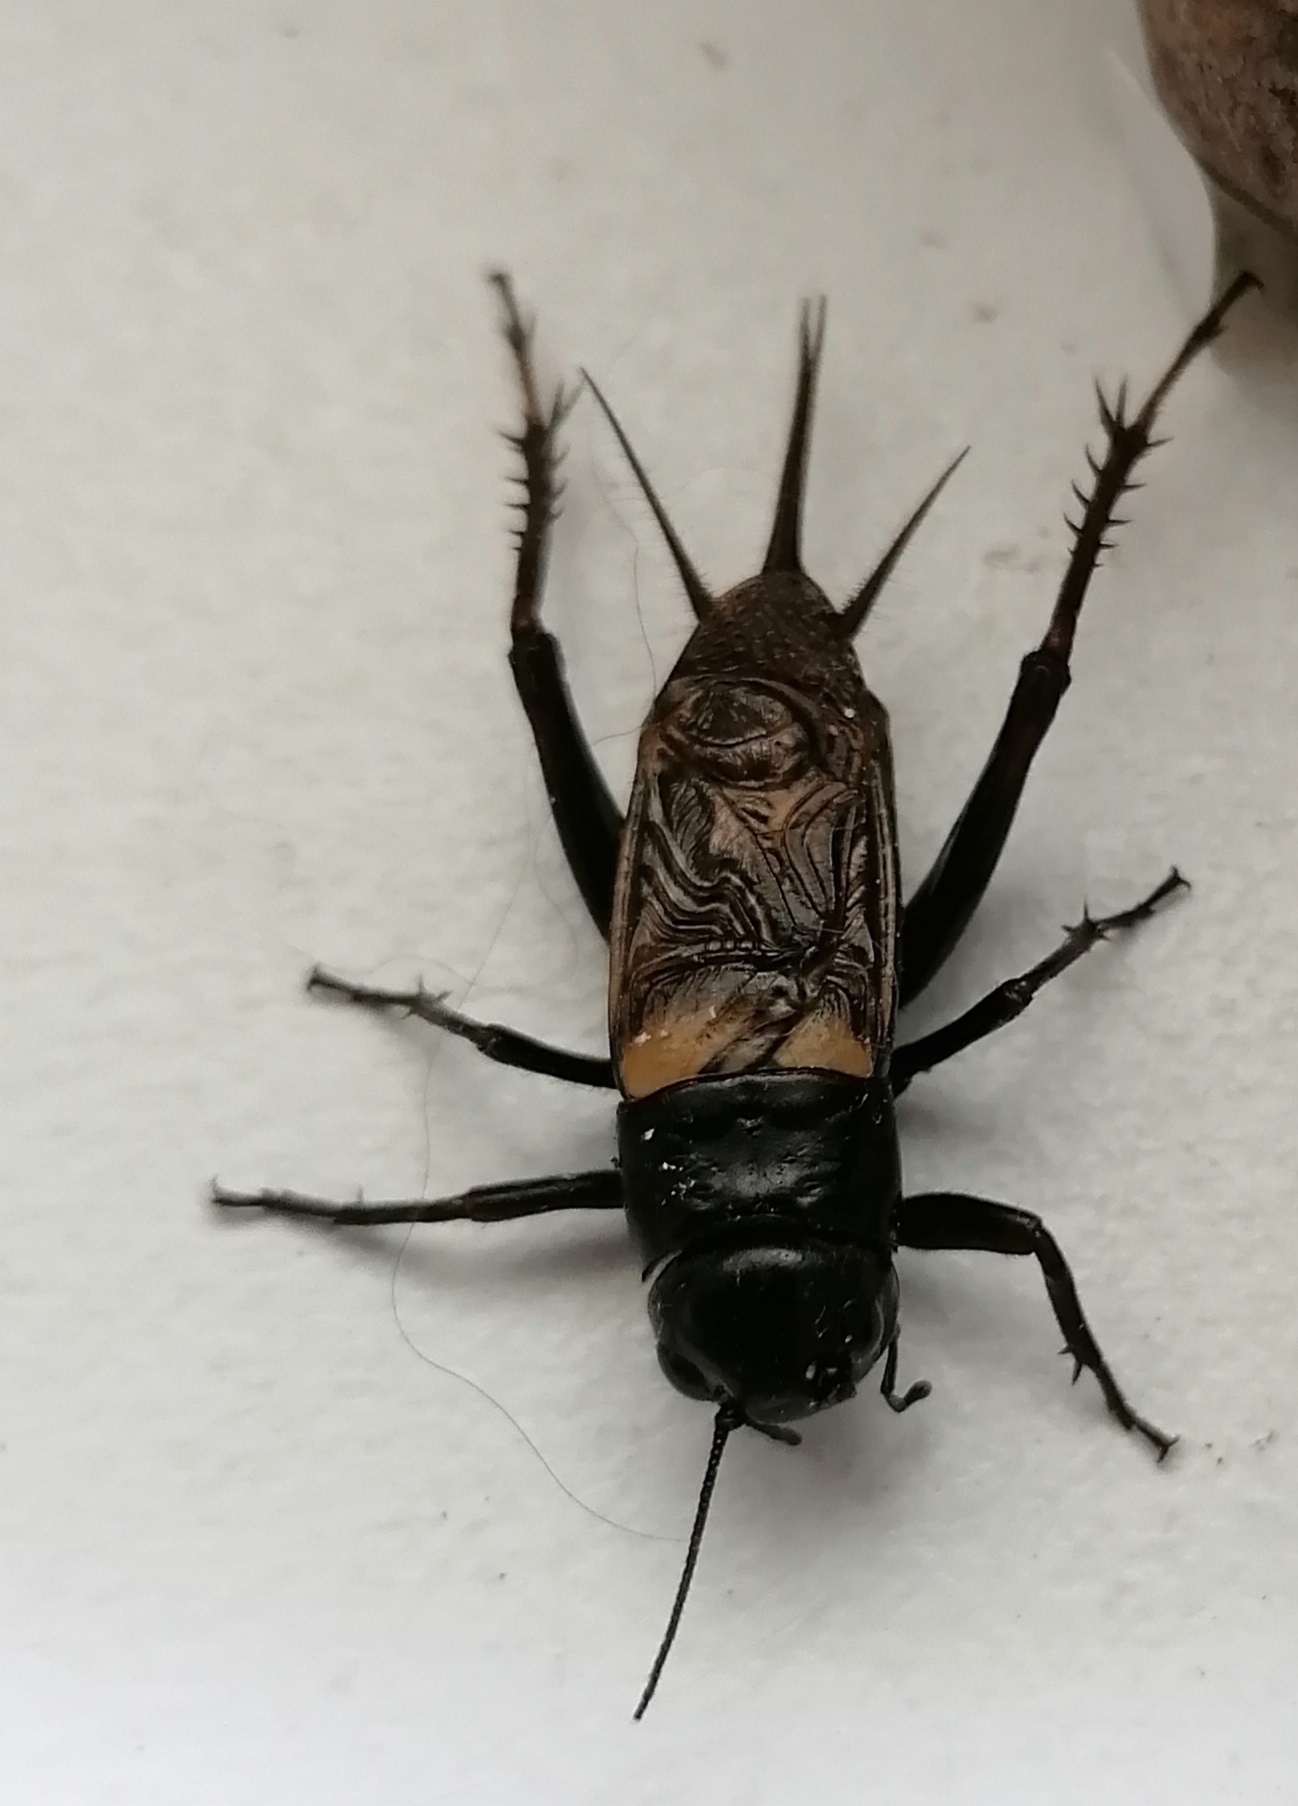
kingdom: Animalia
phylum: Arthropoda
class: Insecta
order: Orthoptera
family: Gryllidae
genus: Gryllus
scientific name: Gryllus bimaculatus
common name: Two-spotted cricket
